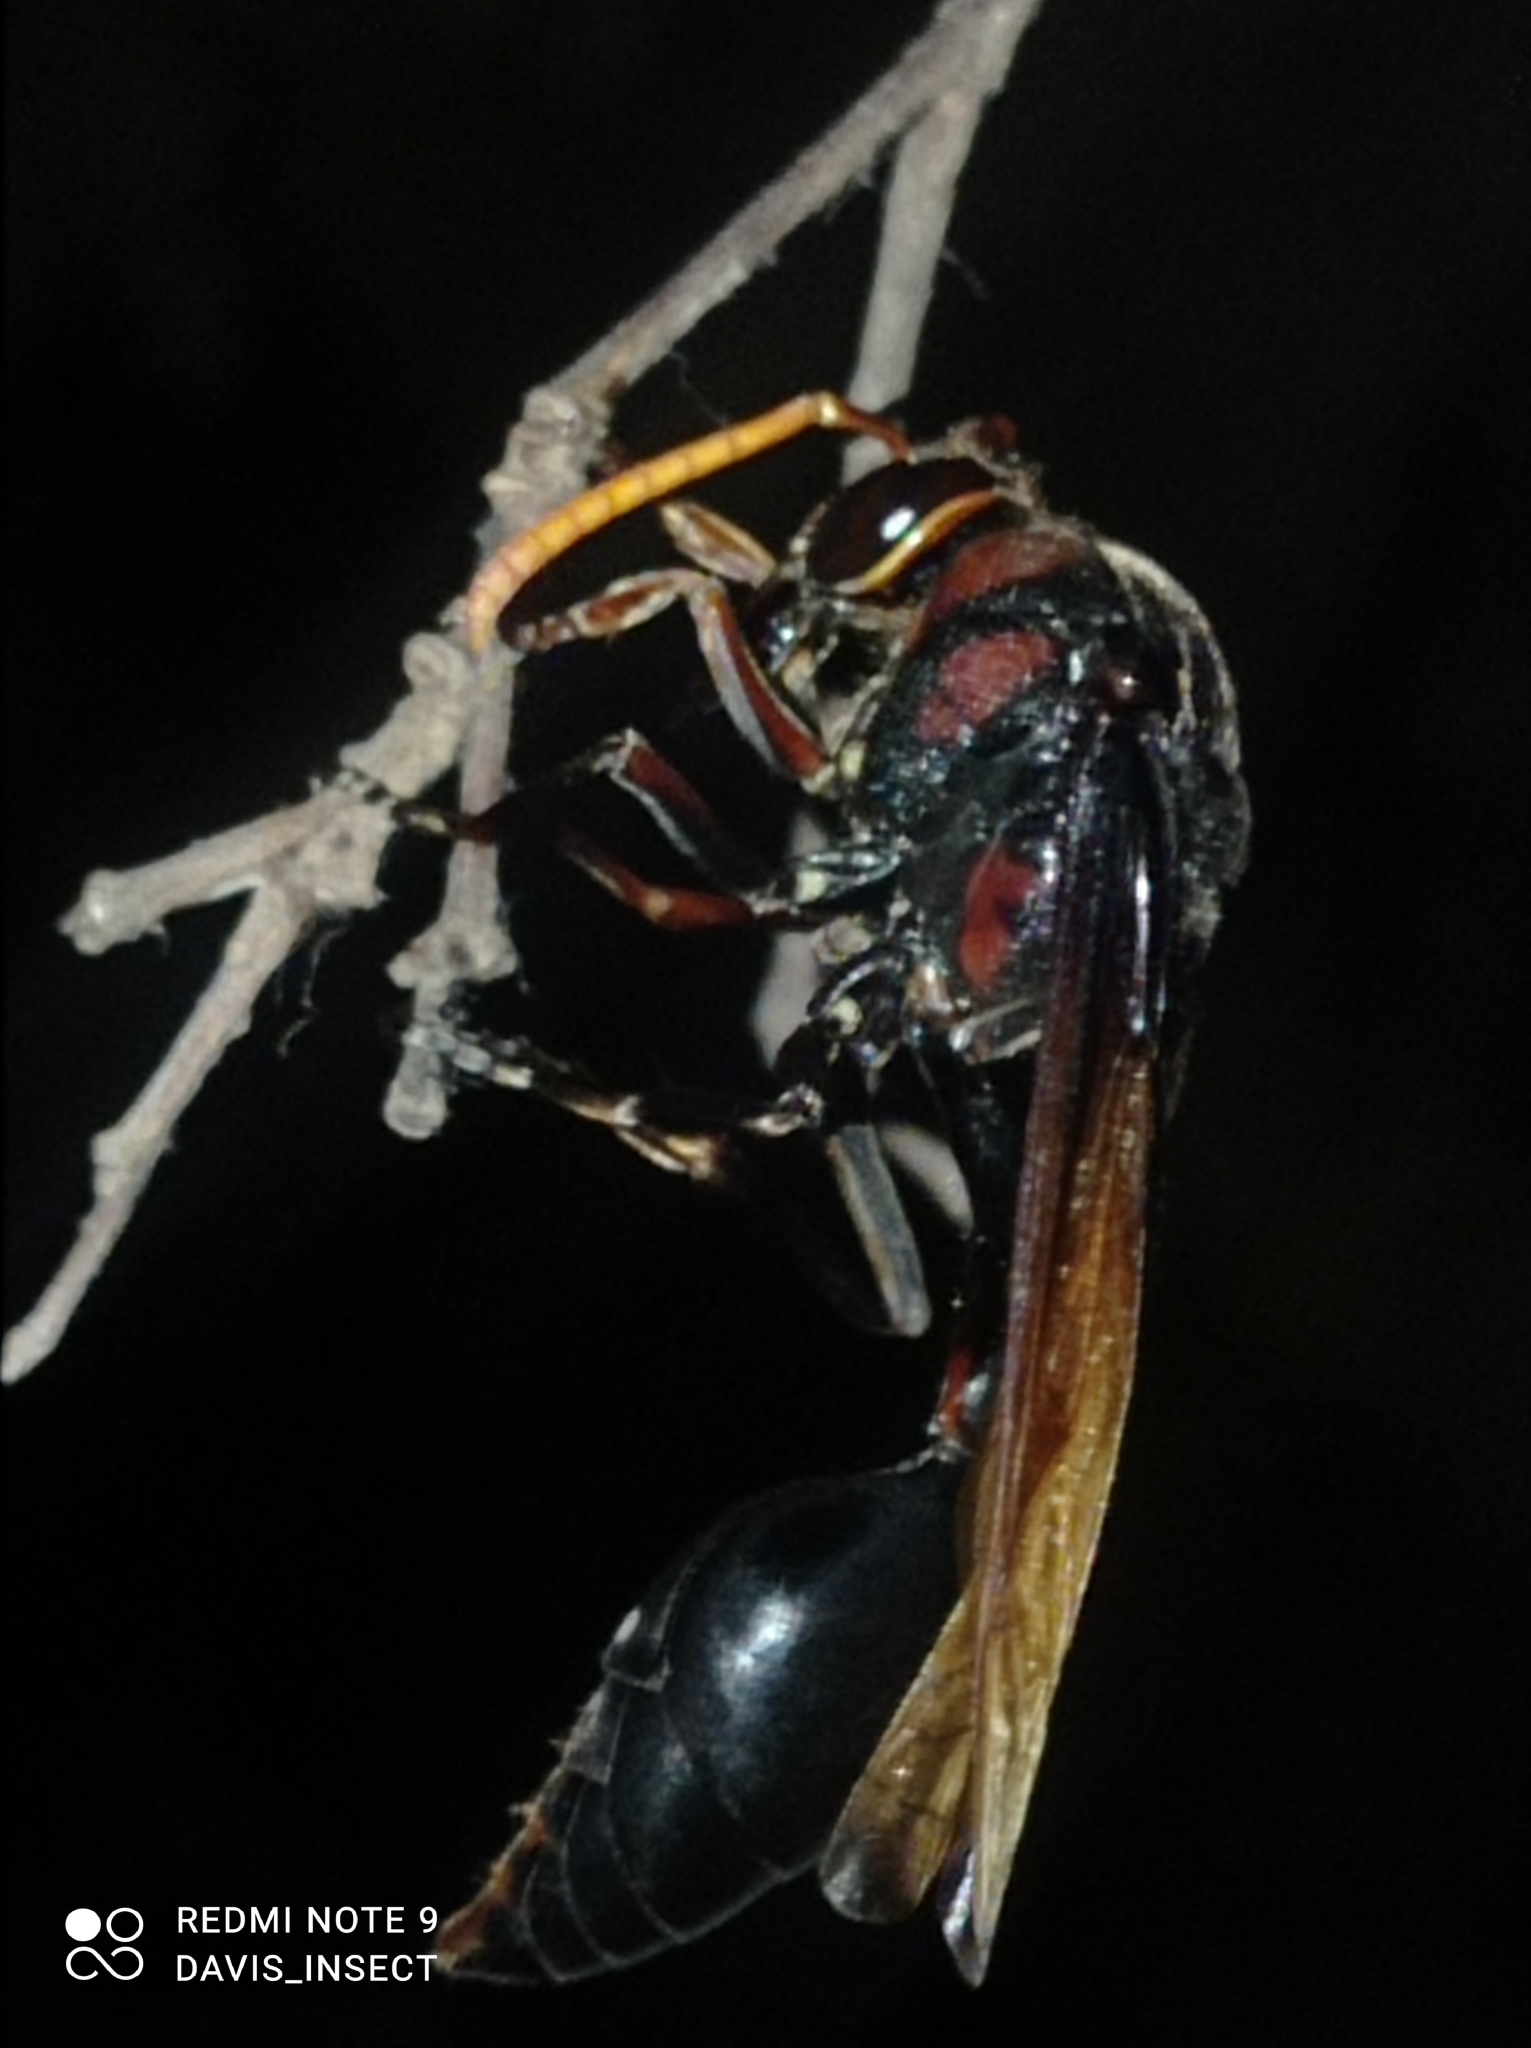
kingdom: Animalia
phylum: Arthropoda
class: Insecta
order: Hymenoptera
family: Eumenidae
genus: Delta
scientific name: Delta pyriforme
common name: Wasp
